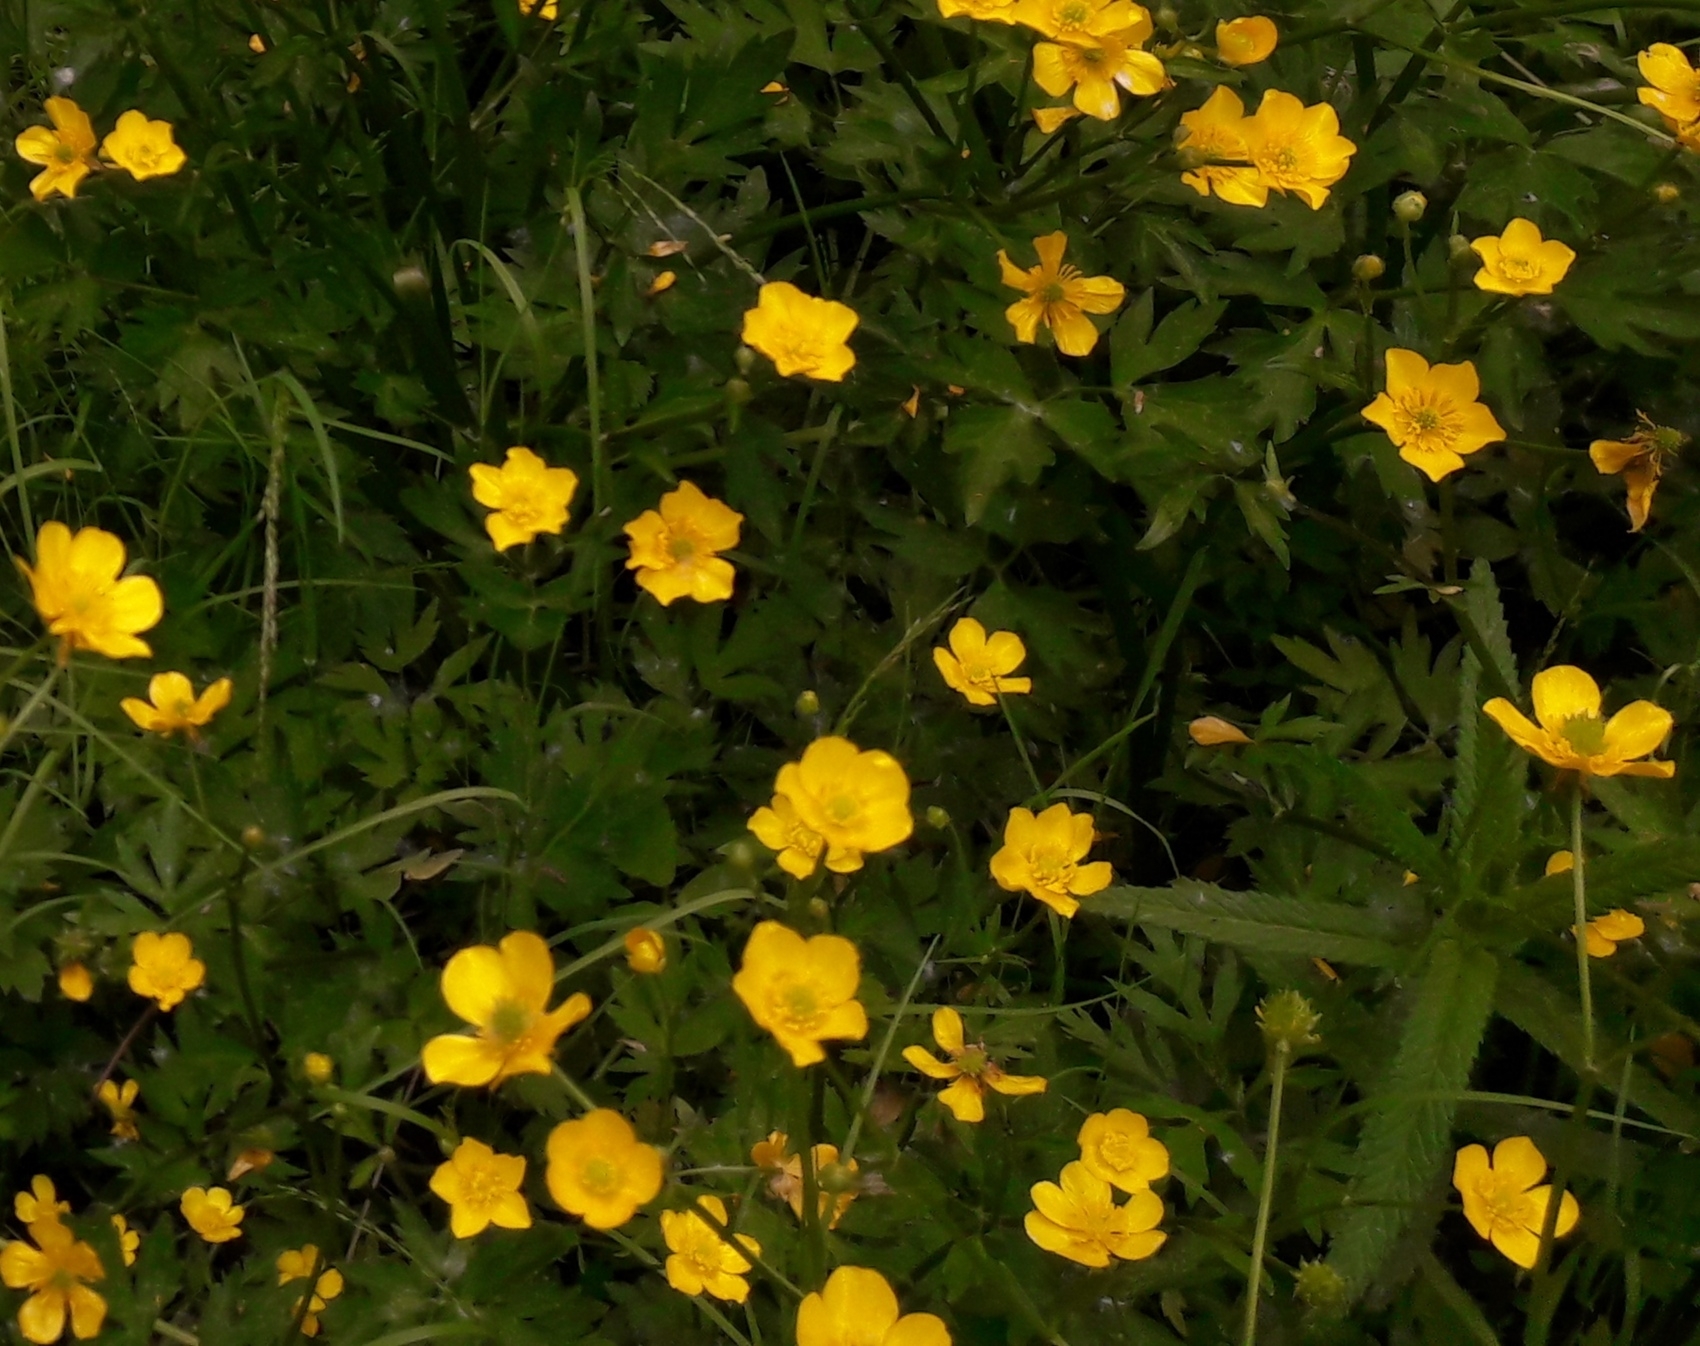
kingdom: Plantae
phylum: Tracheophyta
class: Magnoliopsida
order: Ranunculales
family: Ranunculaceae
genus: Ranunculus
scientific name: Ranunculus repens
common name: Creeping buttercup
